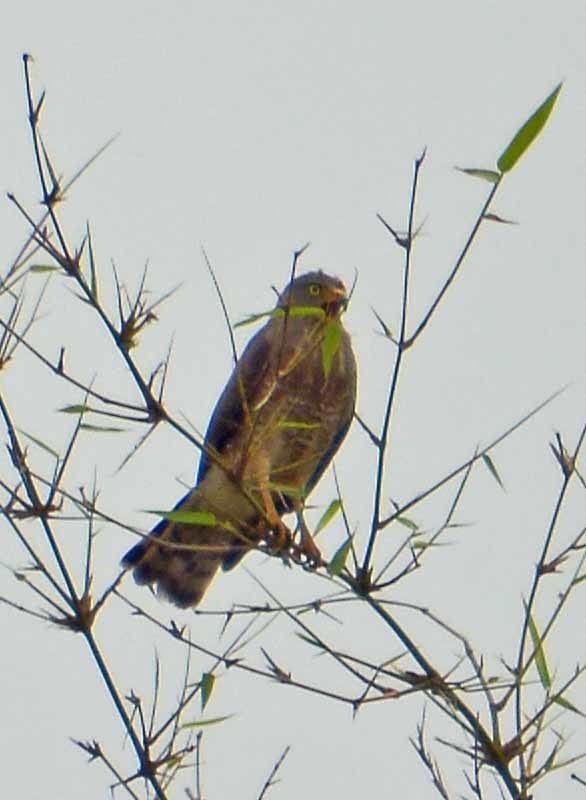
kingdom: Animalia
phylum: Chordata
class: Aves
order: Accipitriformes
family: Accipitridae
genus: Rupornis
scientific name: Rupornis magnirostris
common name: Roadside hawk
